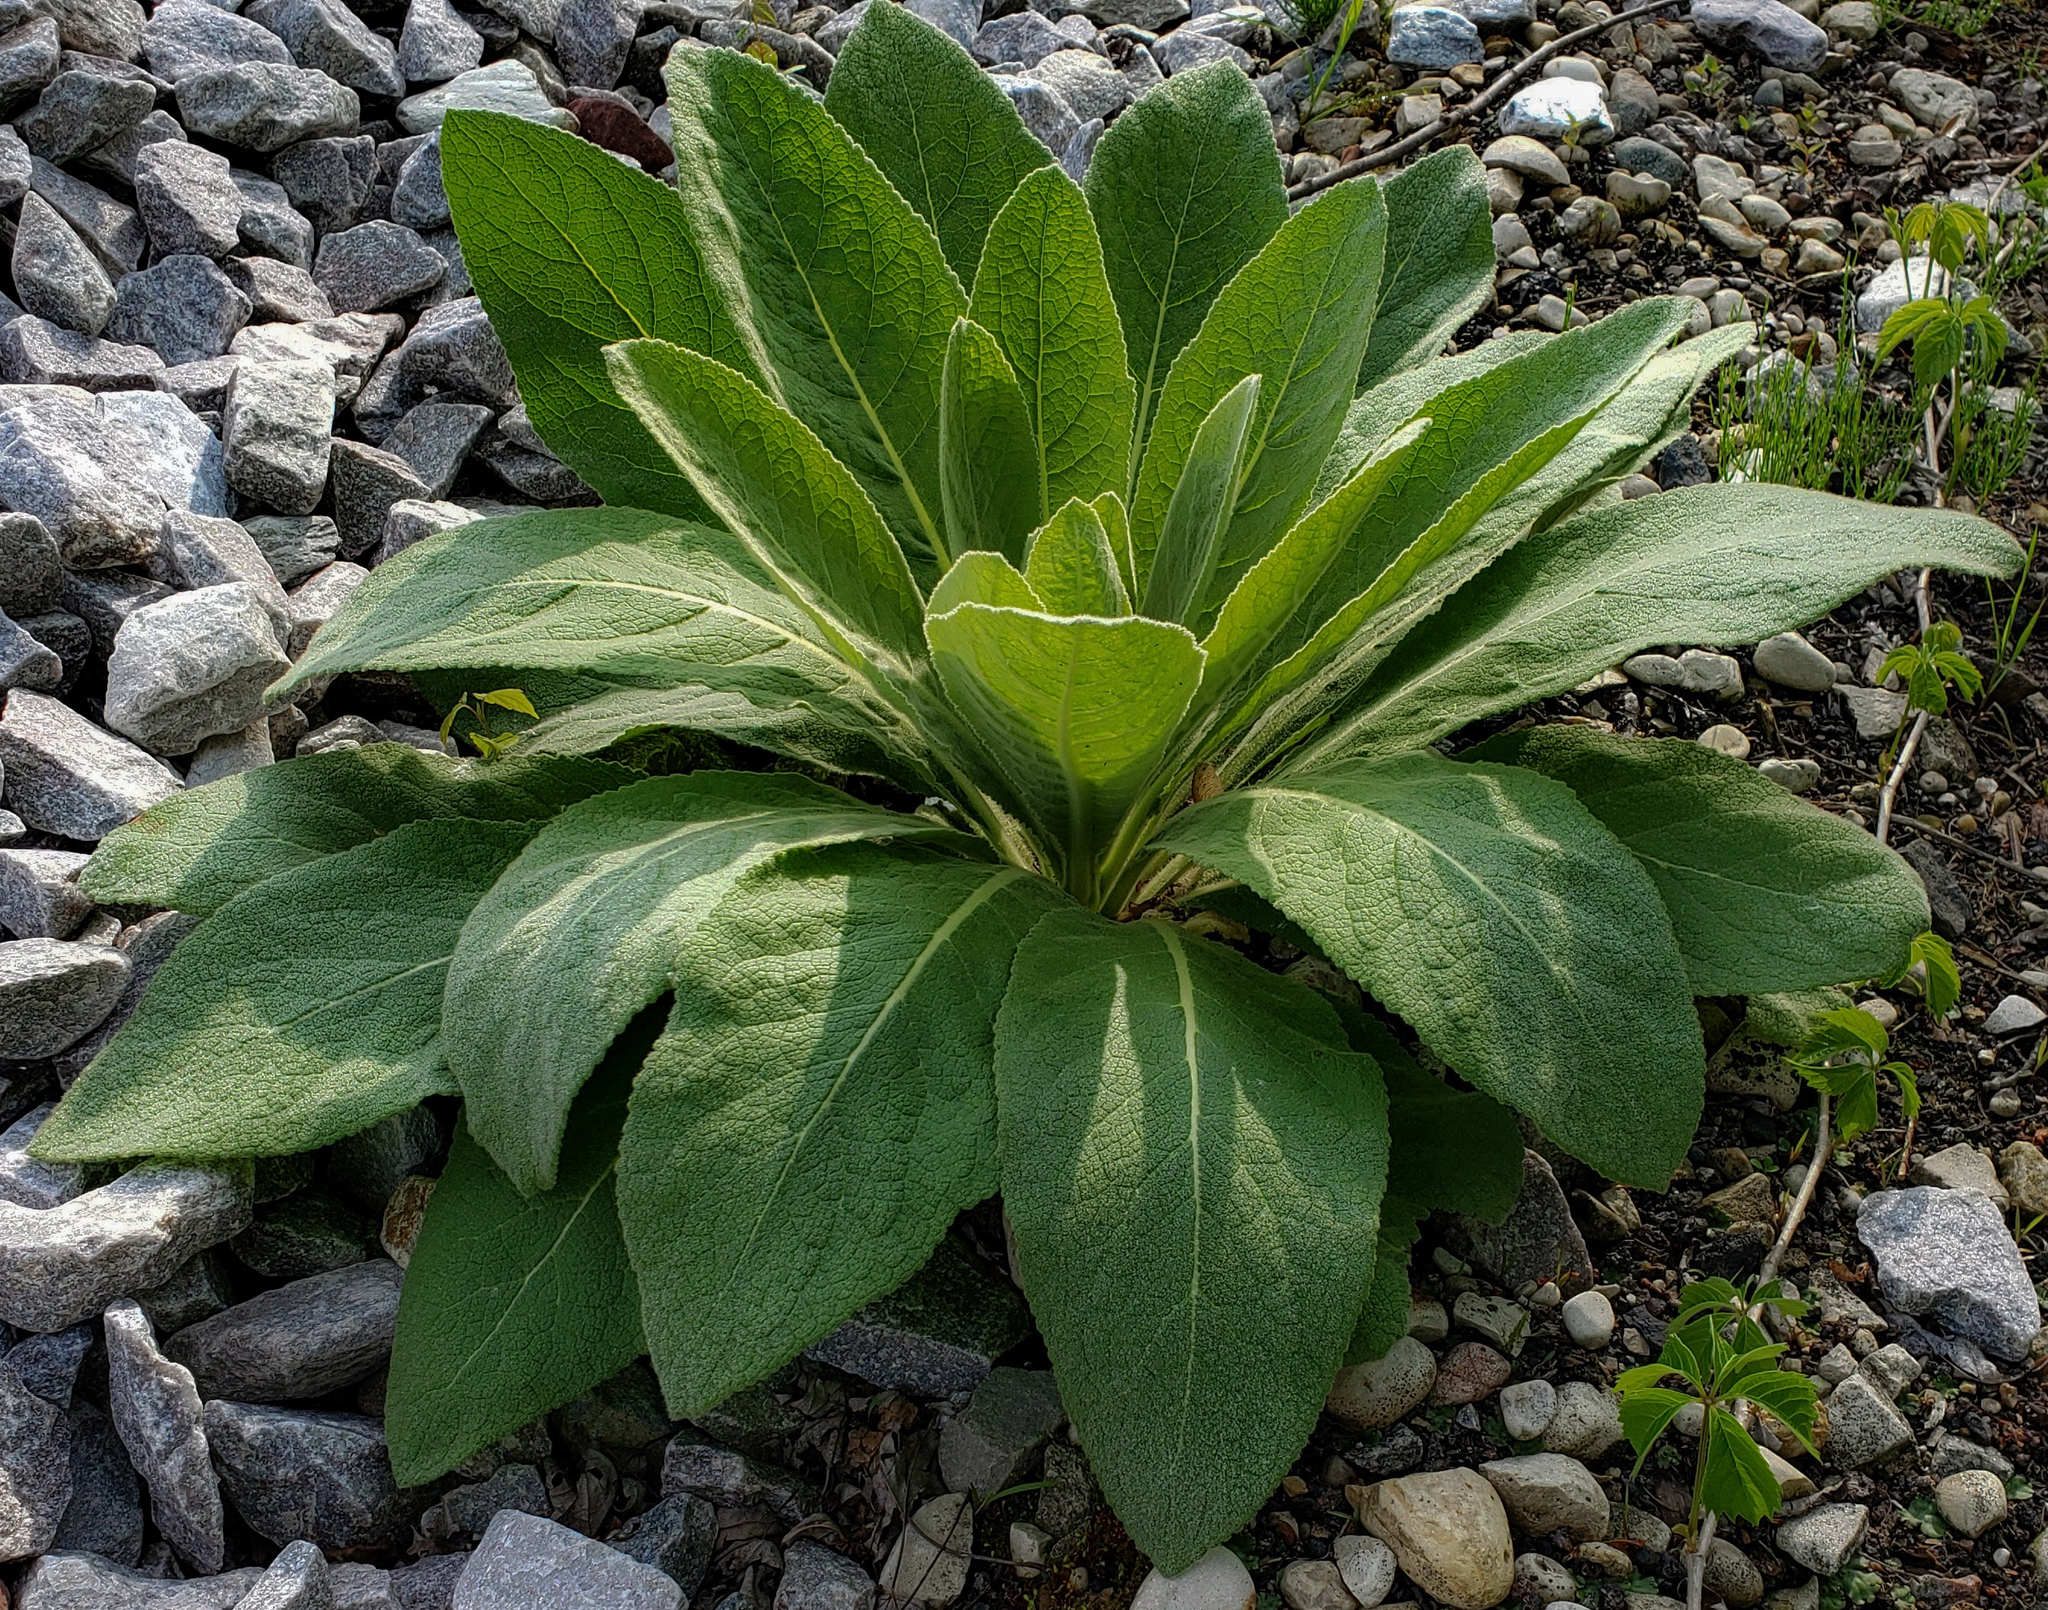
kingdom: Plantae
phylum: Tracheophyta
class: Magnoliopsida
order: Lamiales
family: Scrophulariaceae
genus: Verbascum
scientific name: Verbascum thapsus
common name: Common mullein
